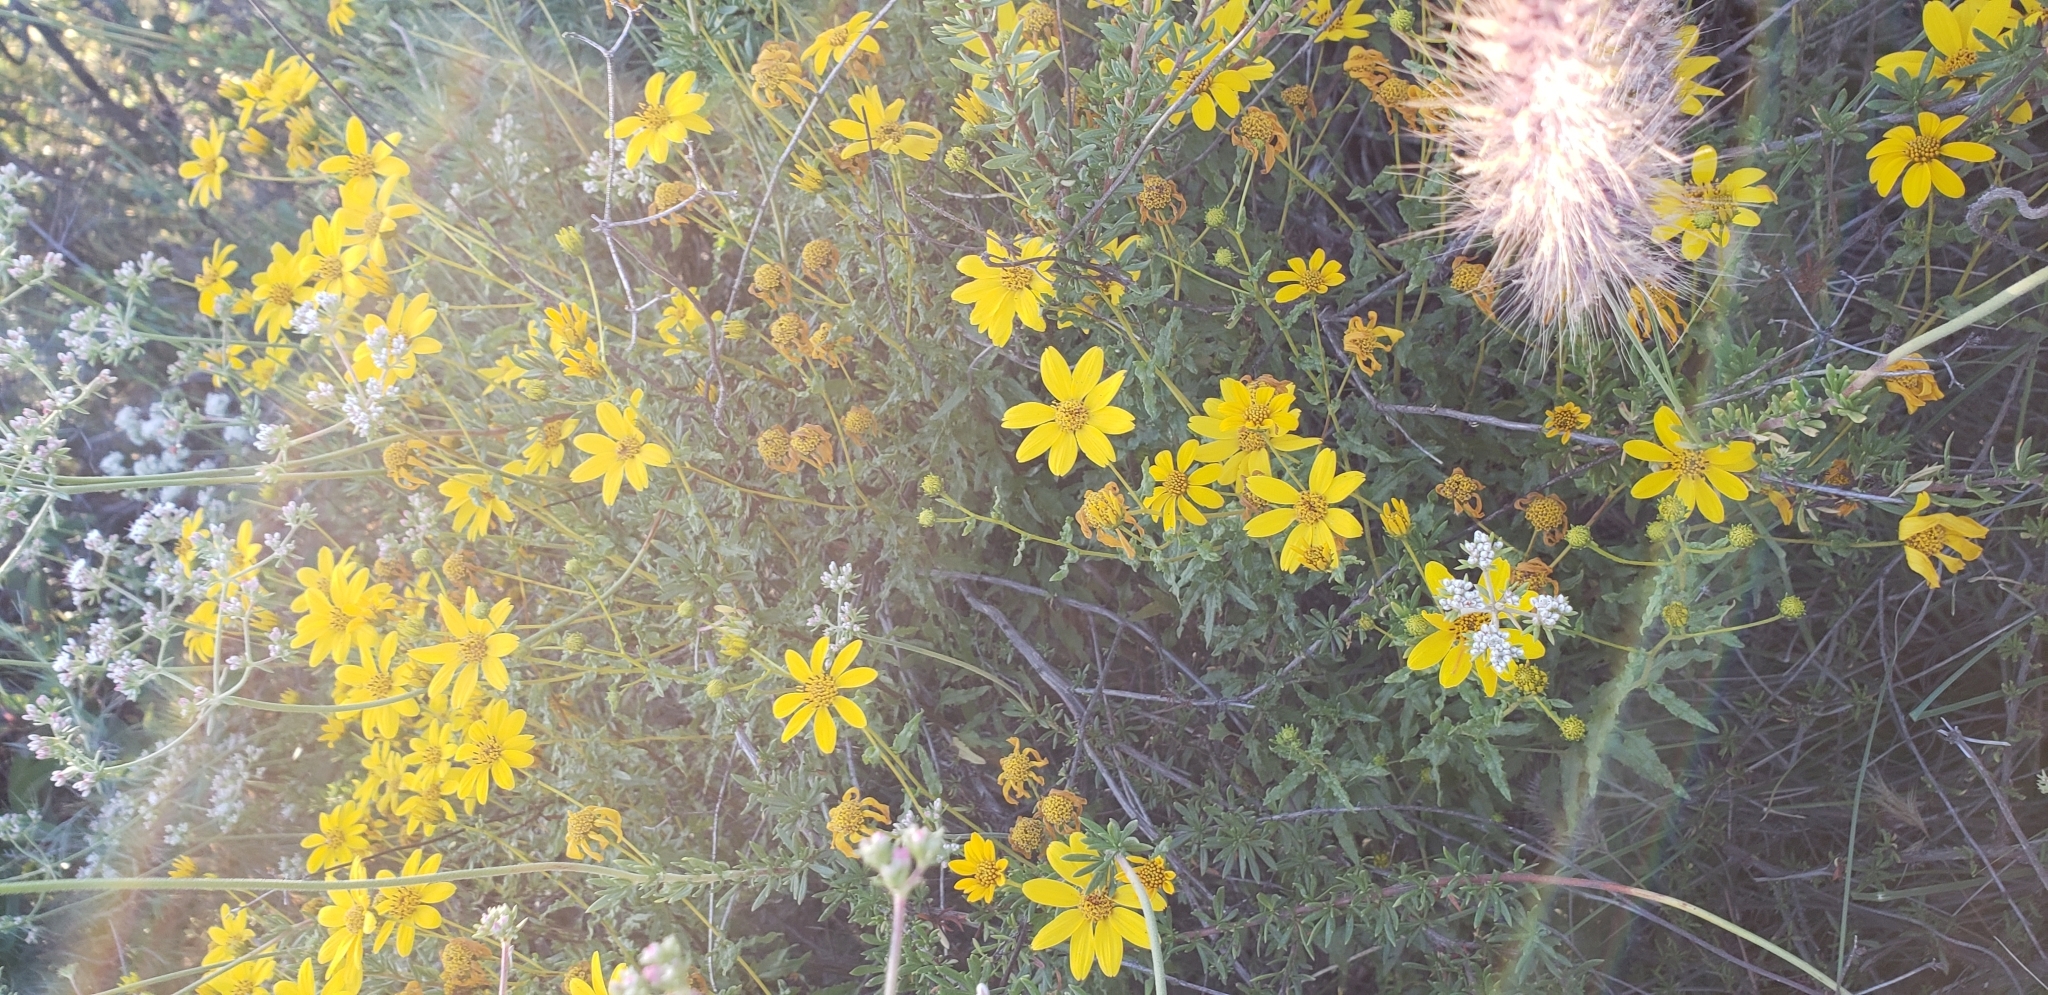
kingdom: Plantae
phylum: Tracheophyta
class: Magnoliopsida
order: Asterales
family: Asteraceae
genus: Bahiopsis
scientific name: Bahiopsis laciniata
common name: San diego county viguiera
